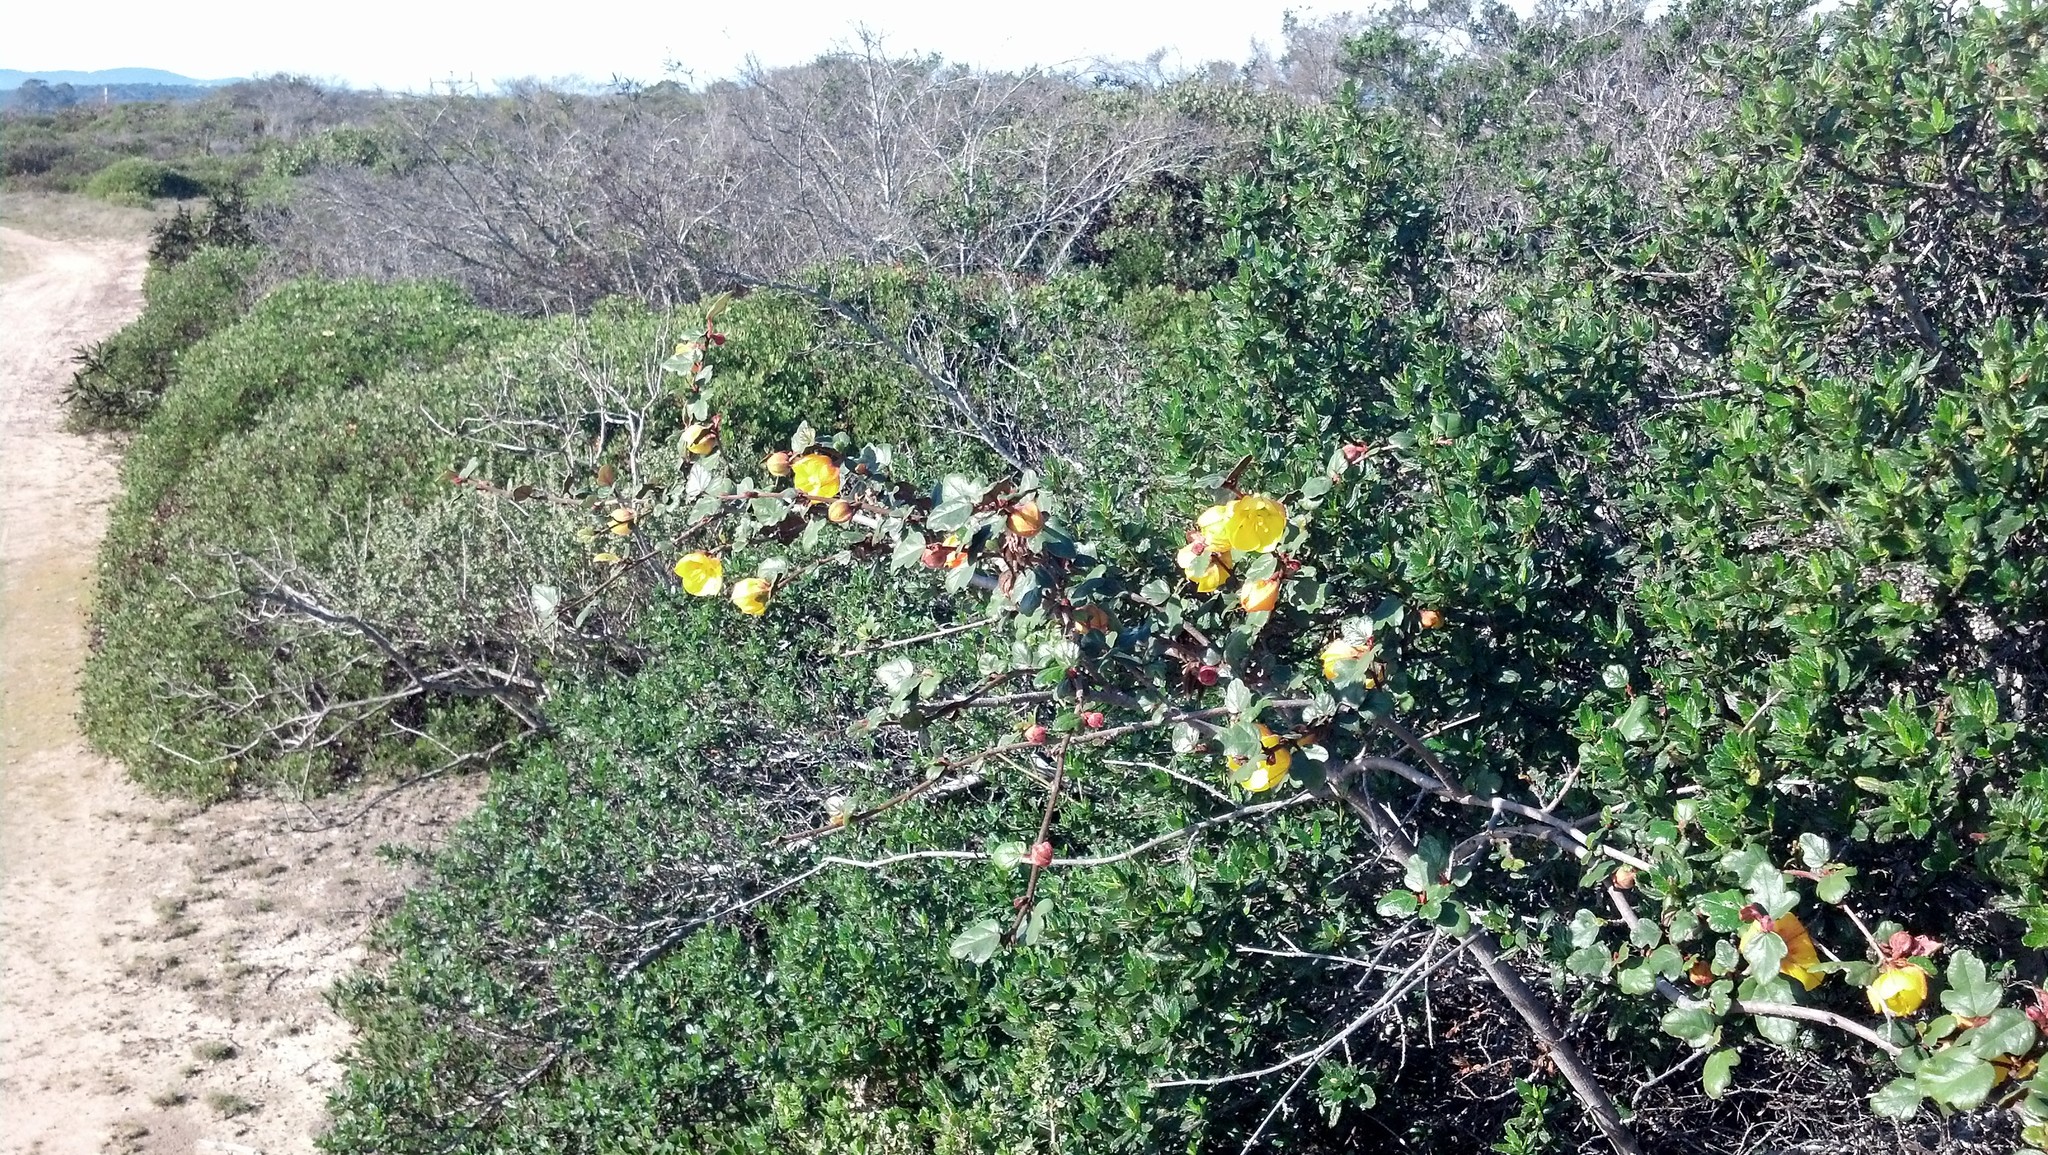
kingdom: Plantae
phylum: Tracheophyta
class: Magnoliopsida
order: Malvales
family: Malvaceae
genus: Fremontodendron
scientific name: Fremontodendron californicum
